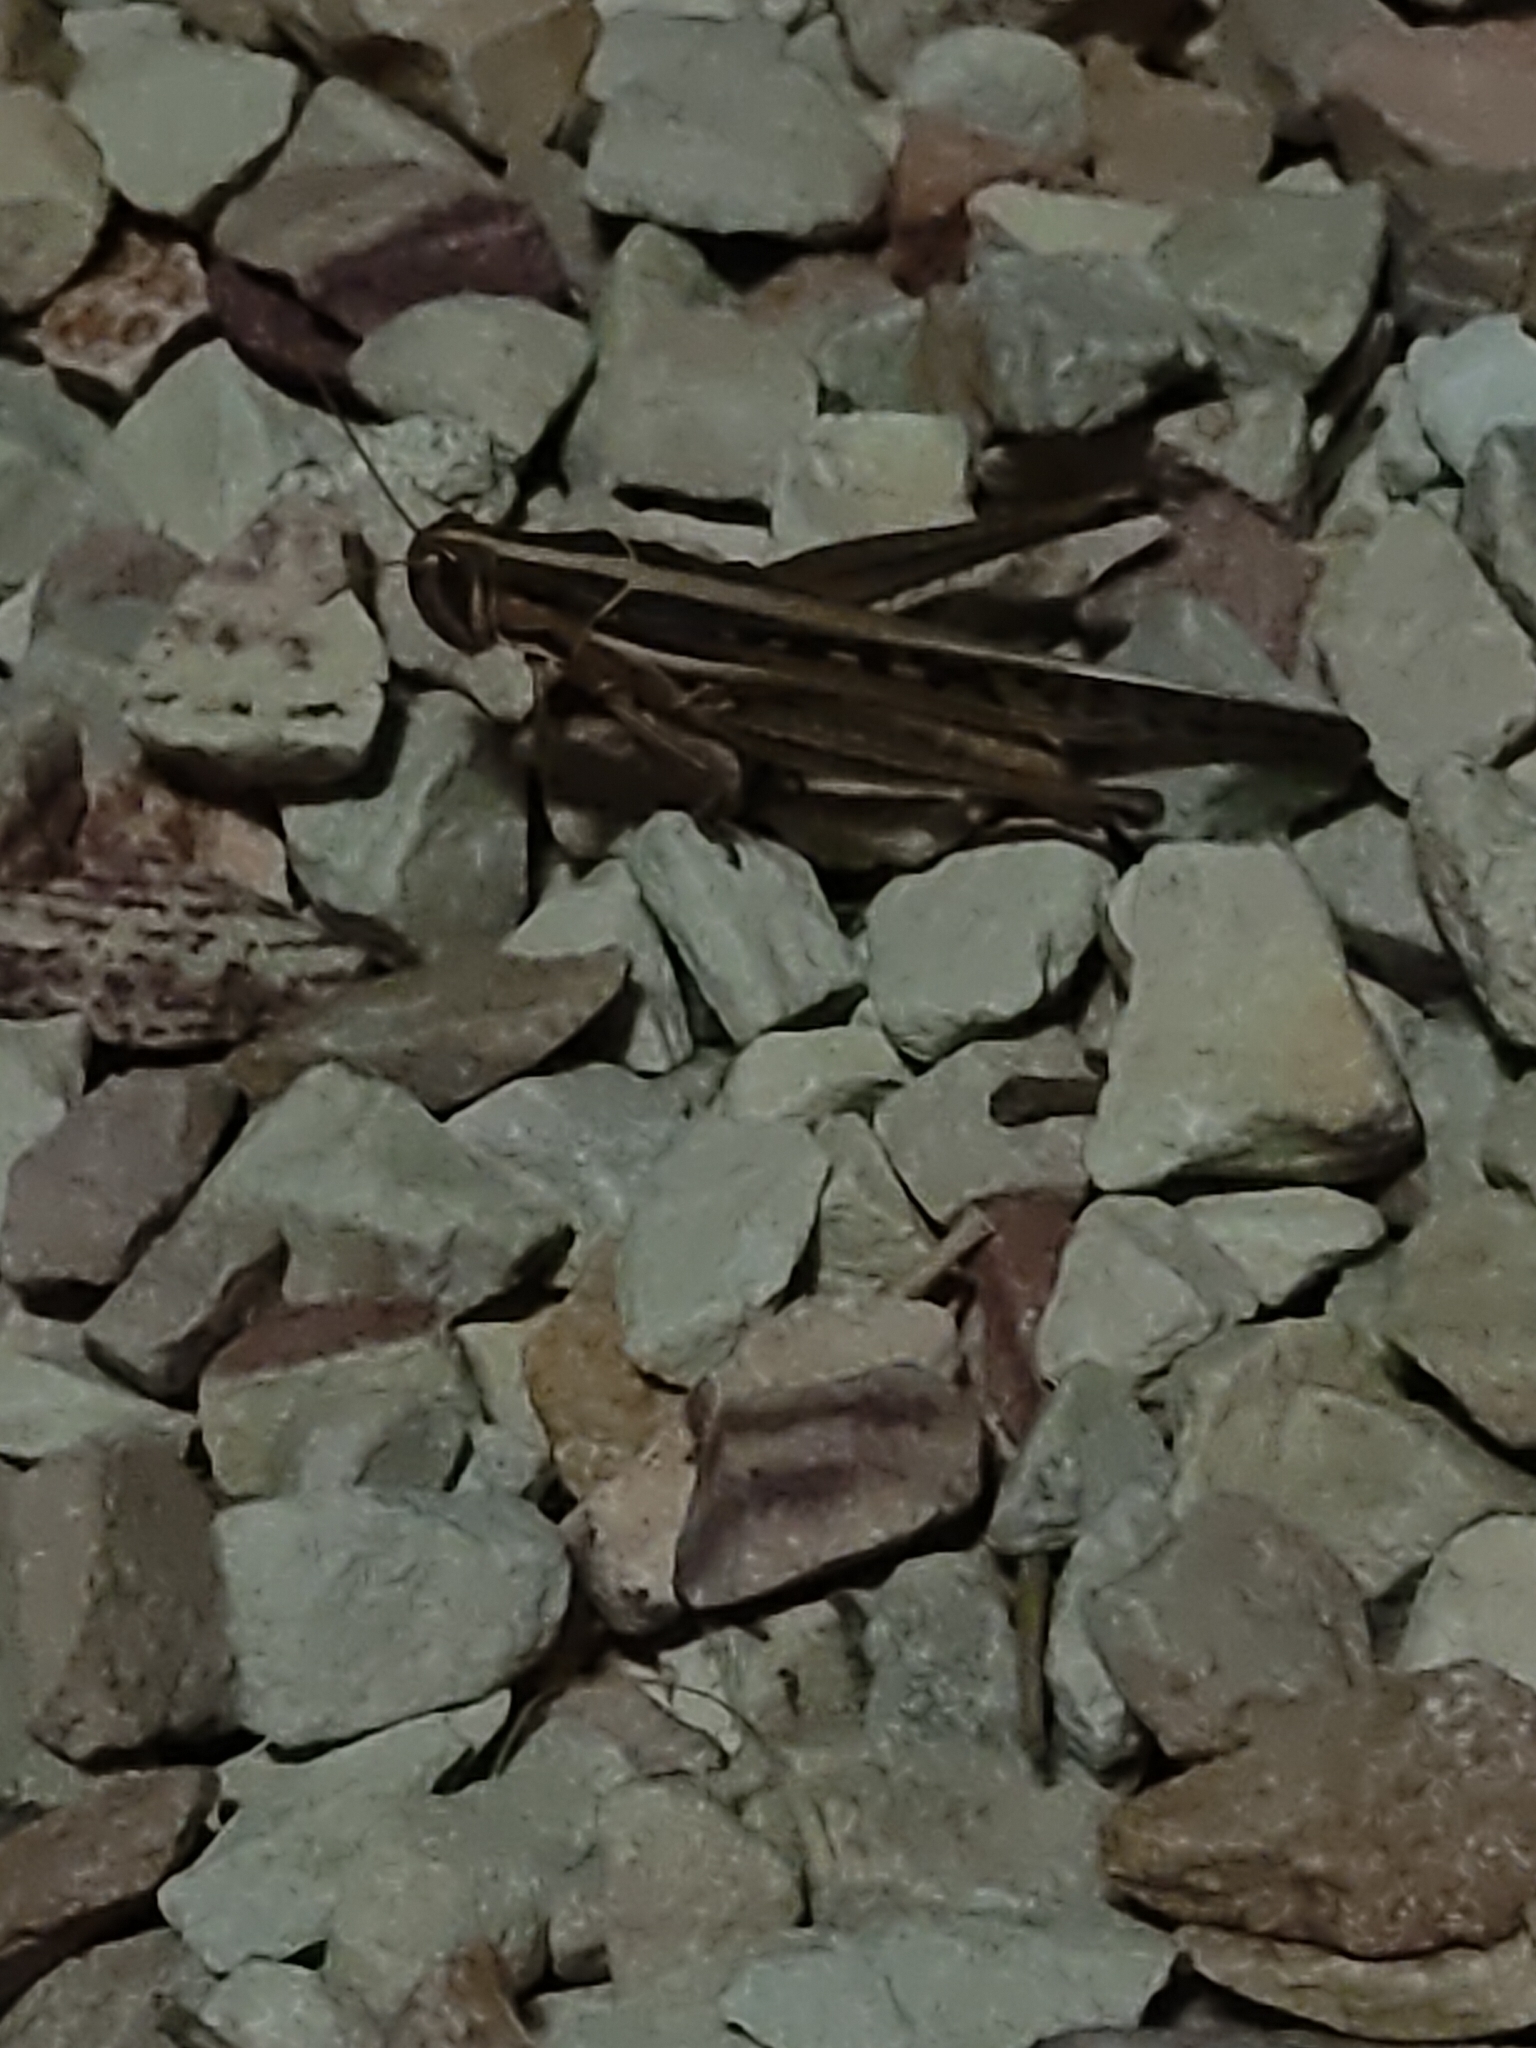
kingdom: Animalia
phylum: Arthropoda
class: Insecta
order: Orthoptera
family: Acrididae
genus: Austracris
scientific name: Austracris guttulosa
